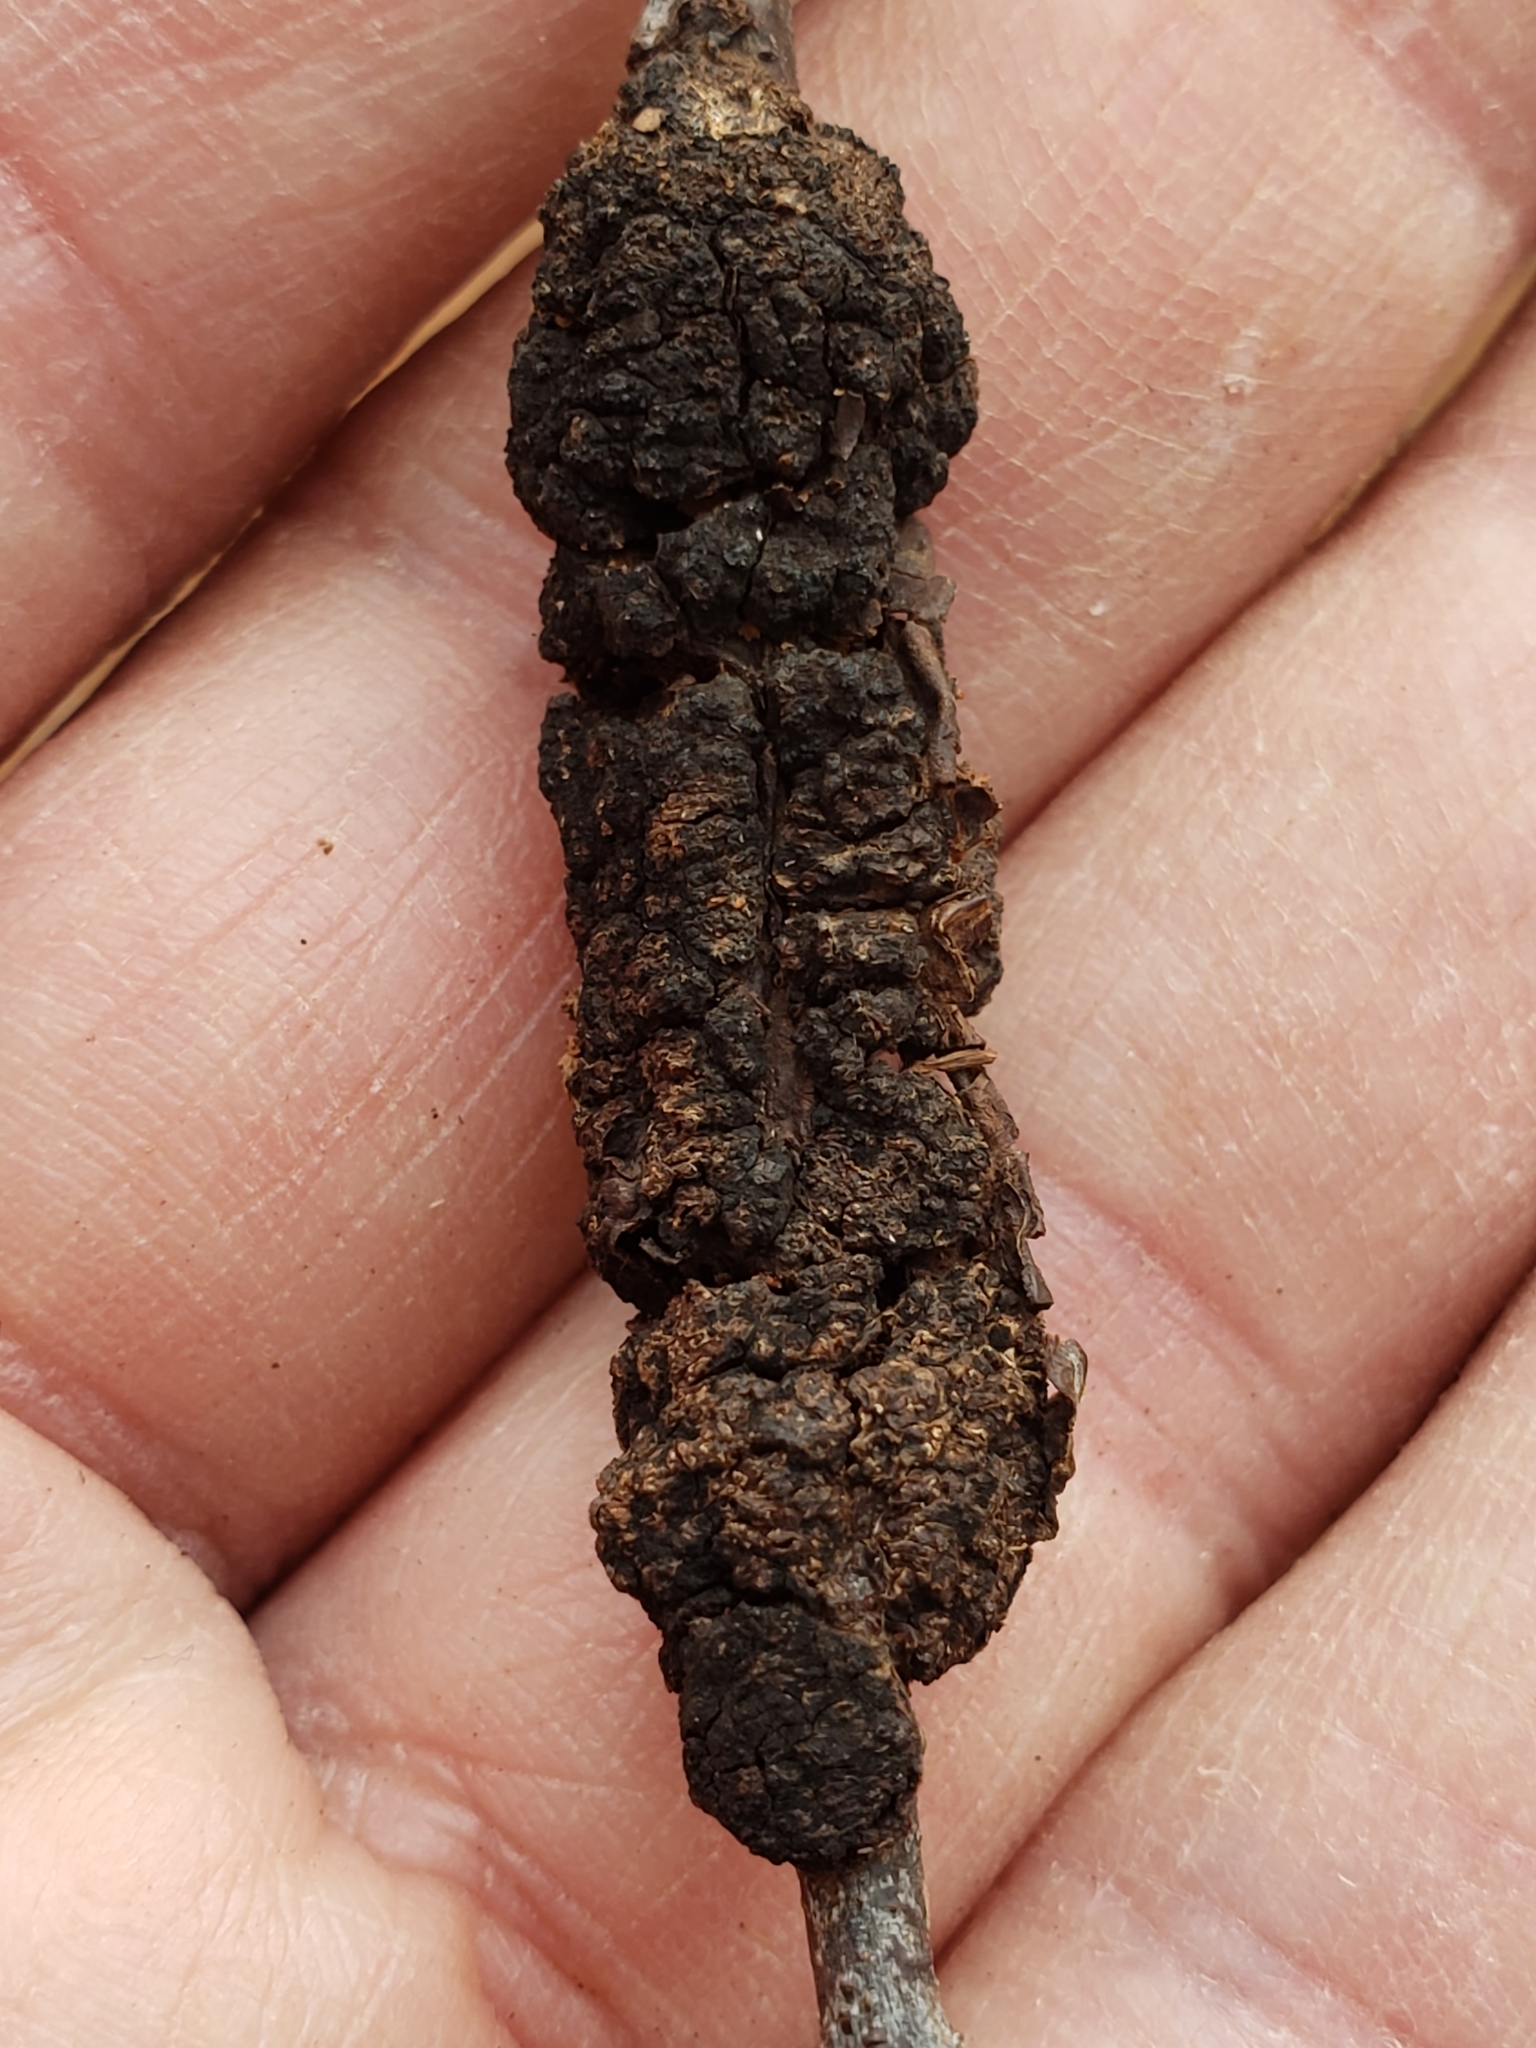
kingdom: Fungi
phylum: Ascomycota
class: Dothideomycetes
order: Venturiales
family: Venturiaceae
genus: Apiosporina
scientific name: Apiosporina morbosa
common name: Black knot
